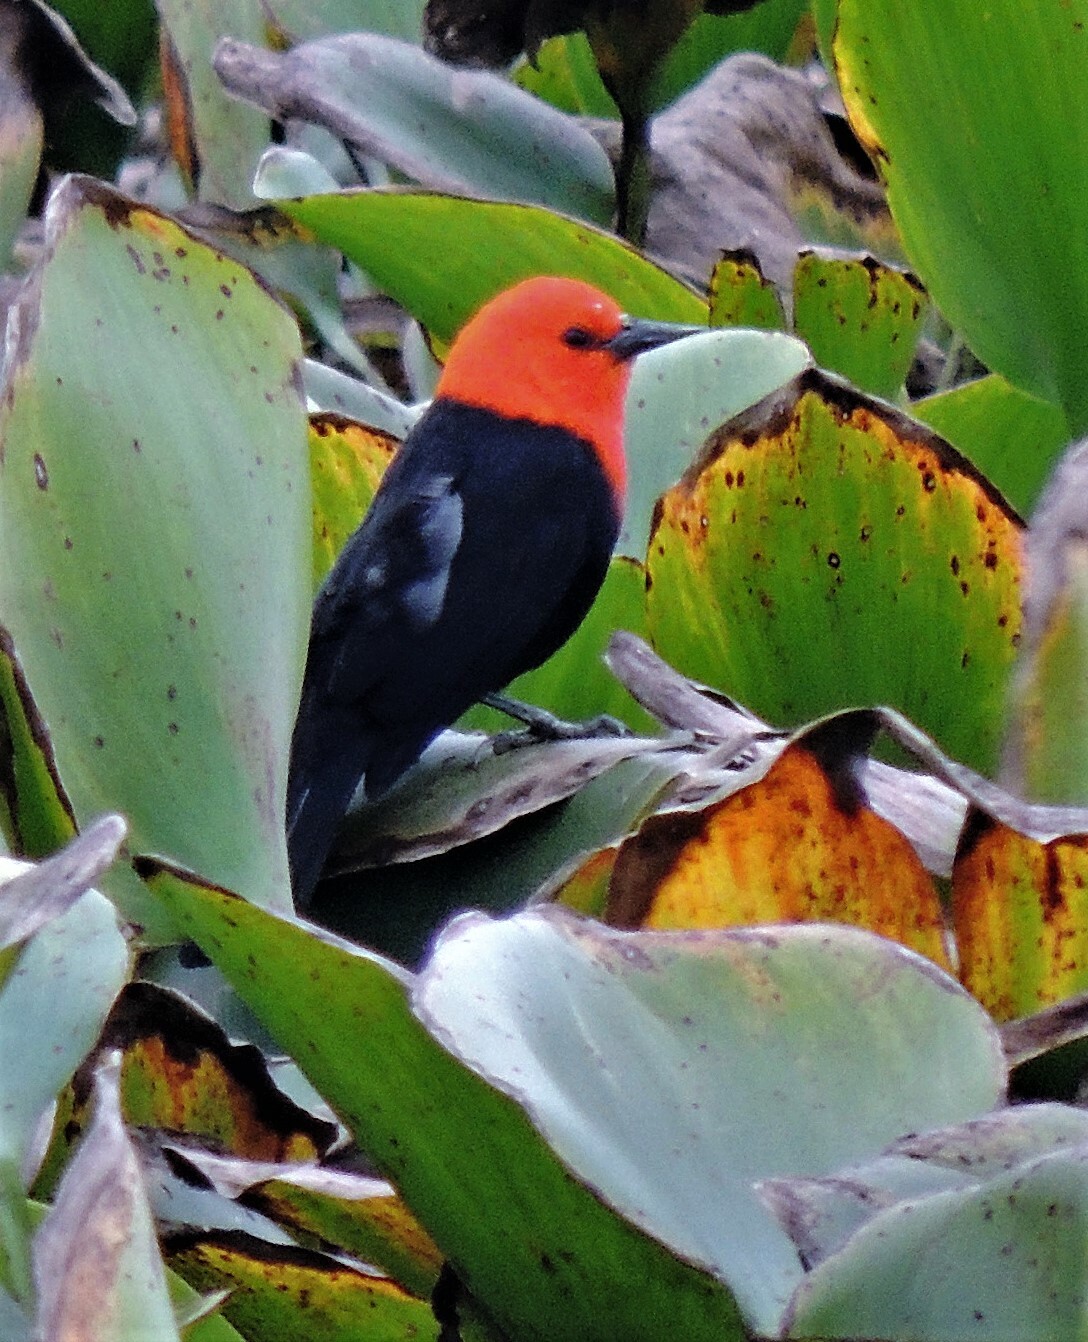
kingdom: Animalia
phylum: Chordata
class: Aves
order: Passeriformes
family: Icteridae
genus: Amblyramphus
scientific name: Amblyramphus holosericeus
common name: Scarlet-headed blackbird
